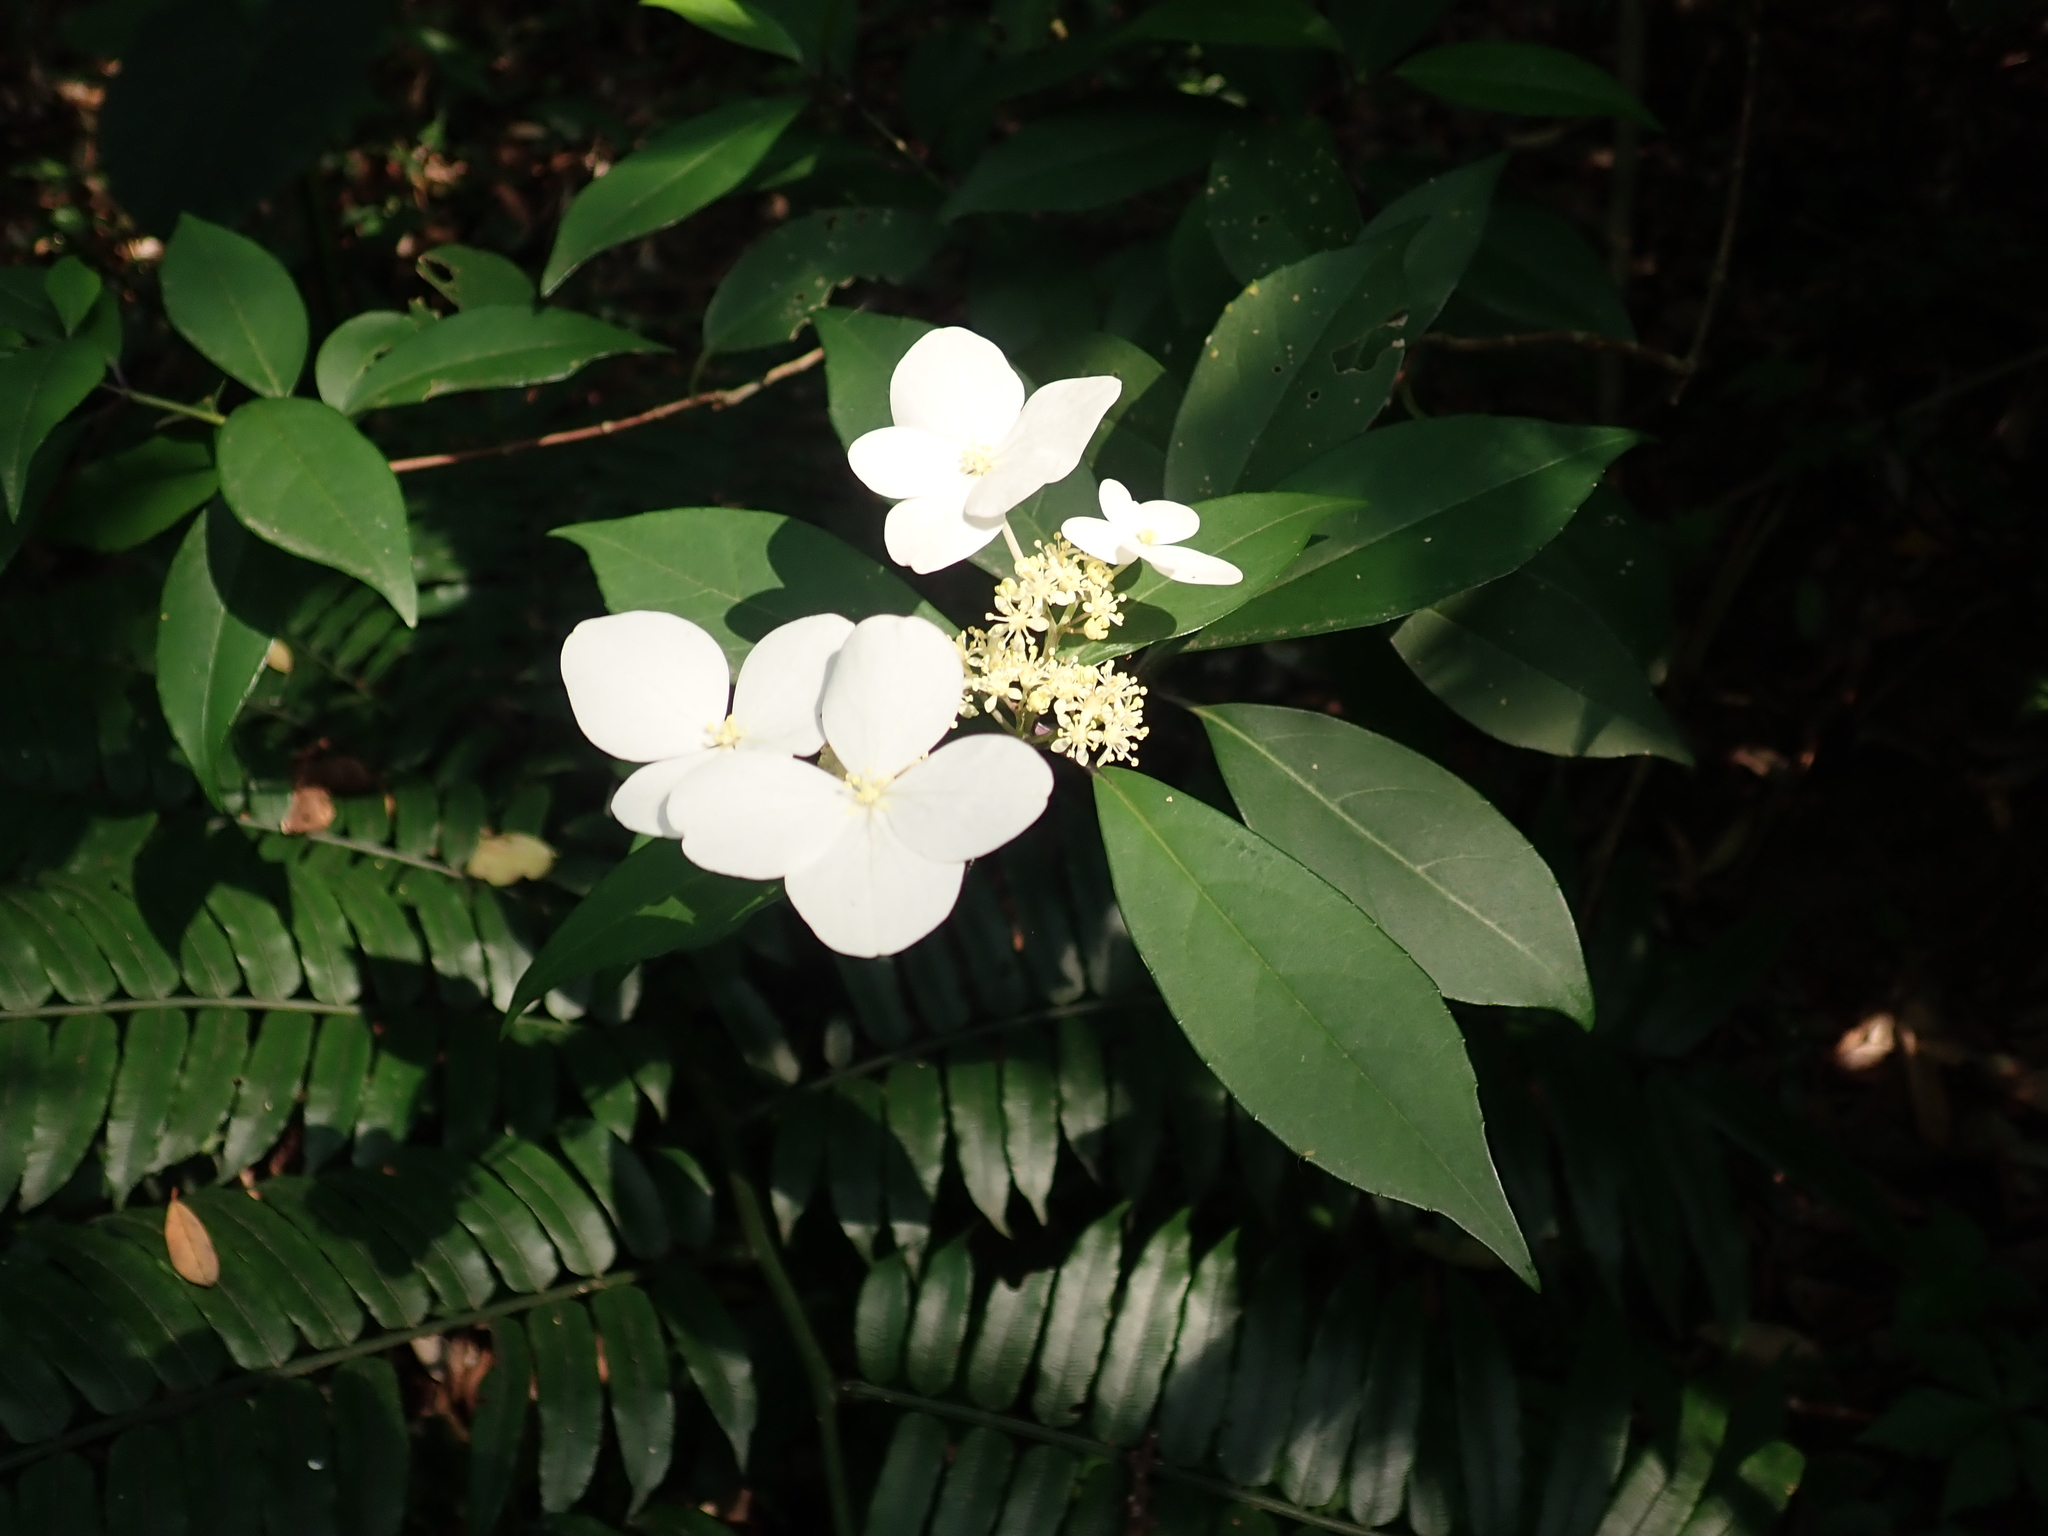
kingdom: Plantae
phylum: Tracheophyta
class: Magnoliopsida
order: Cornales
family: Hydrangeaceae
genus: Hydrangea
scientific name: Hydrangea chinensis
